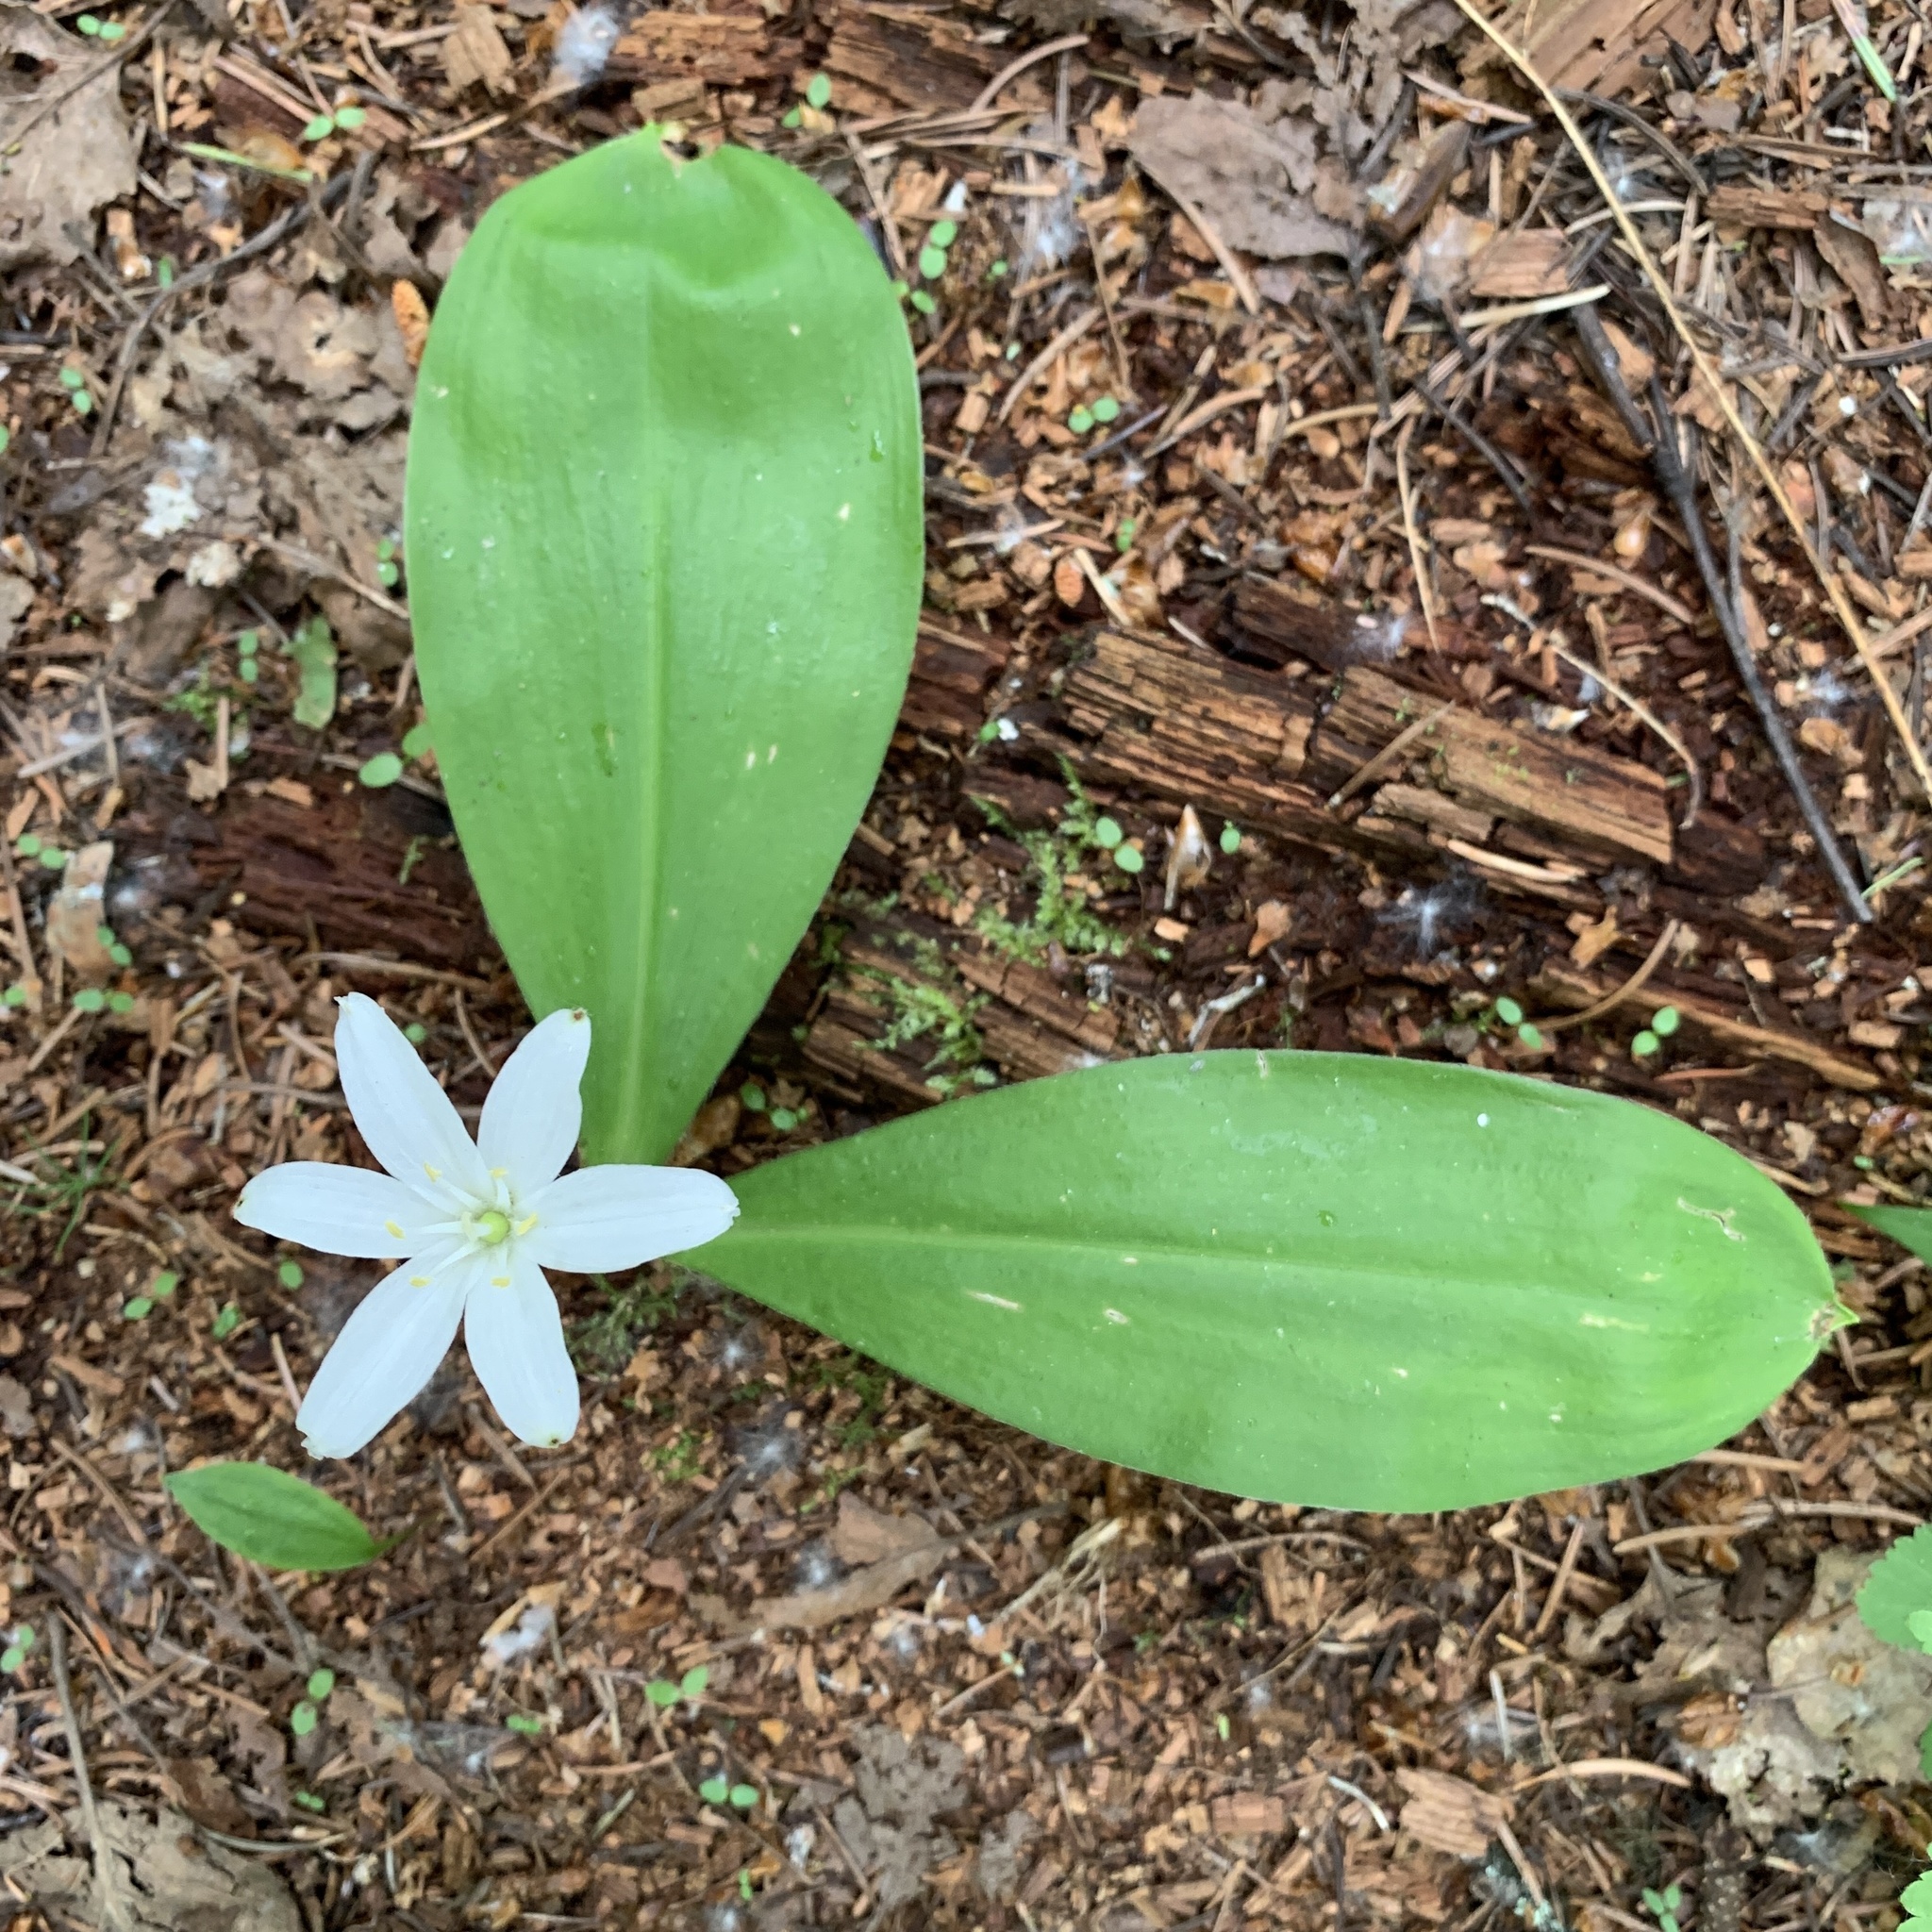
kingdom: Plantae
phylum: Tracheophyta
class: Liliopsida
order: Liliales
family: Liliaceae
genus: Clintonia
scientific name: Clintonia uniflora
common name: Queen's cup
